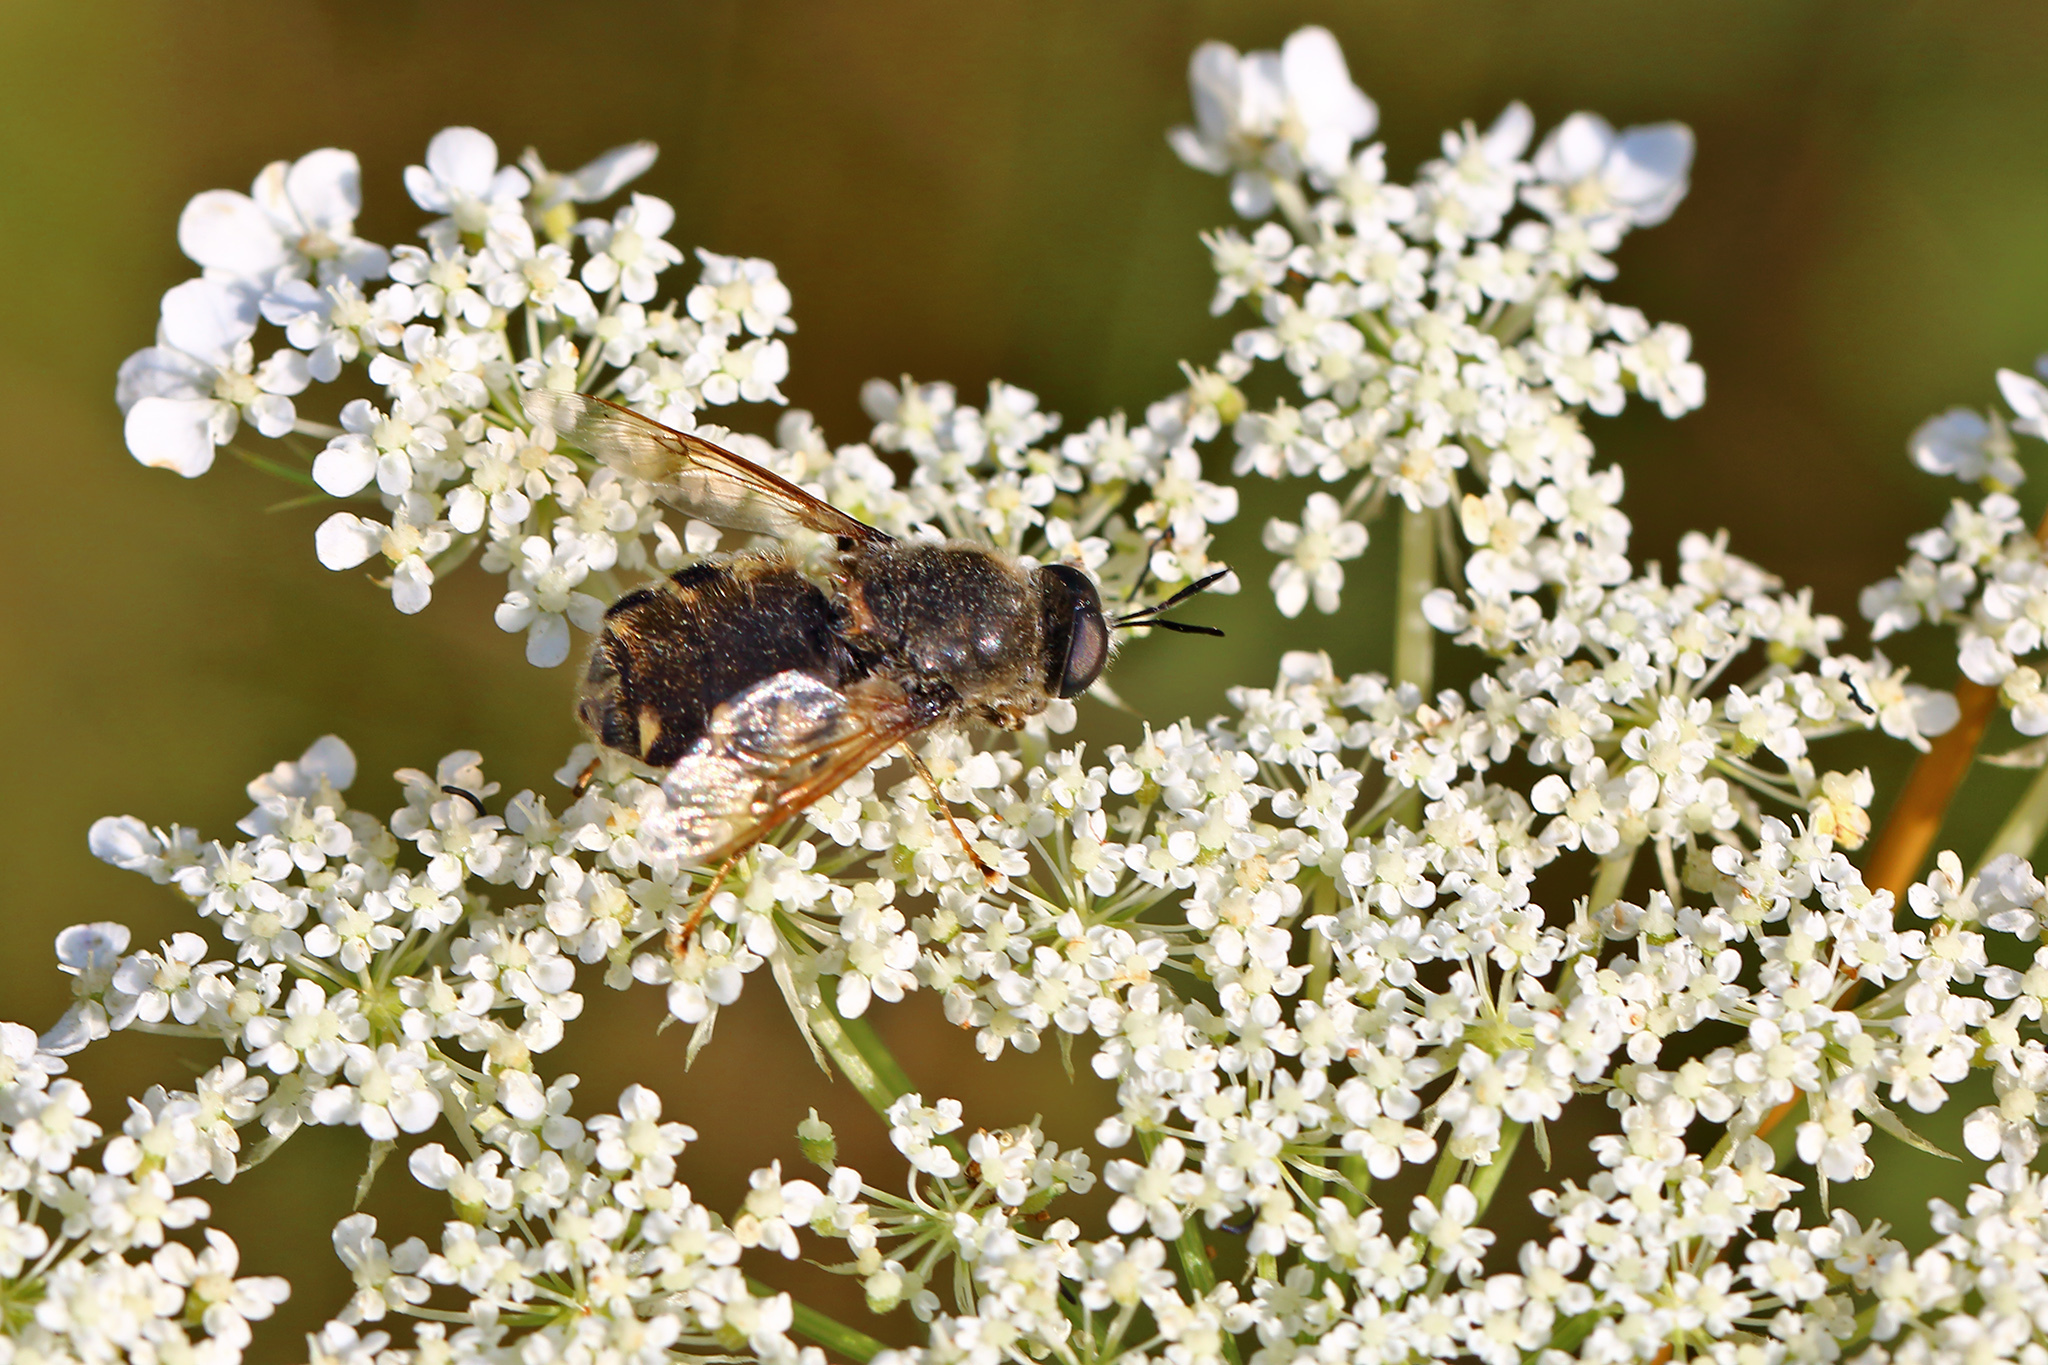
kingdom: Animalia
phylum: Arthropoda
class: Insecta
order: Diptera
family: Stratiomyidae
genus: Stratiomys
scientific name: Stratiomys singularior
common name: Flecked general
